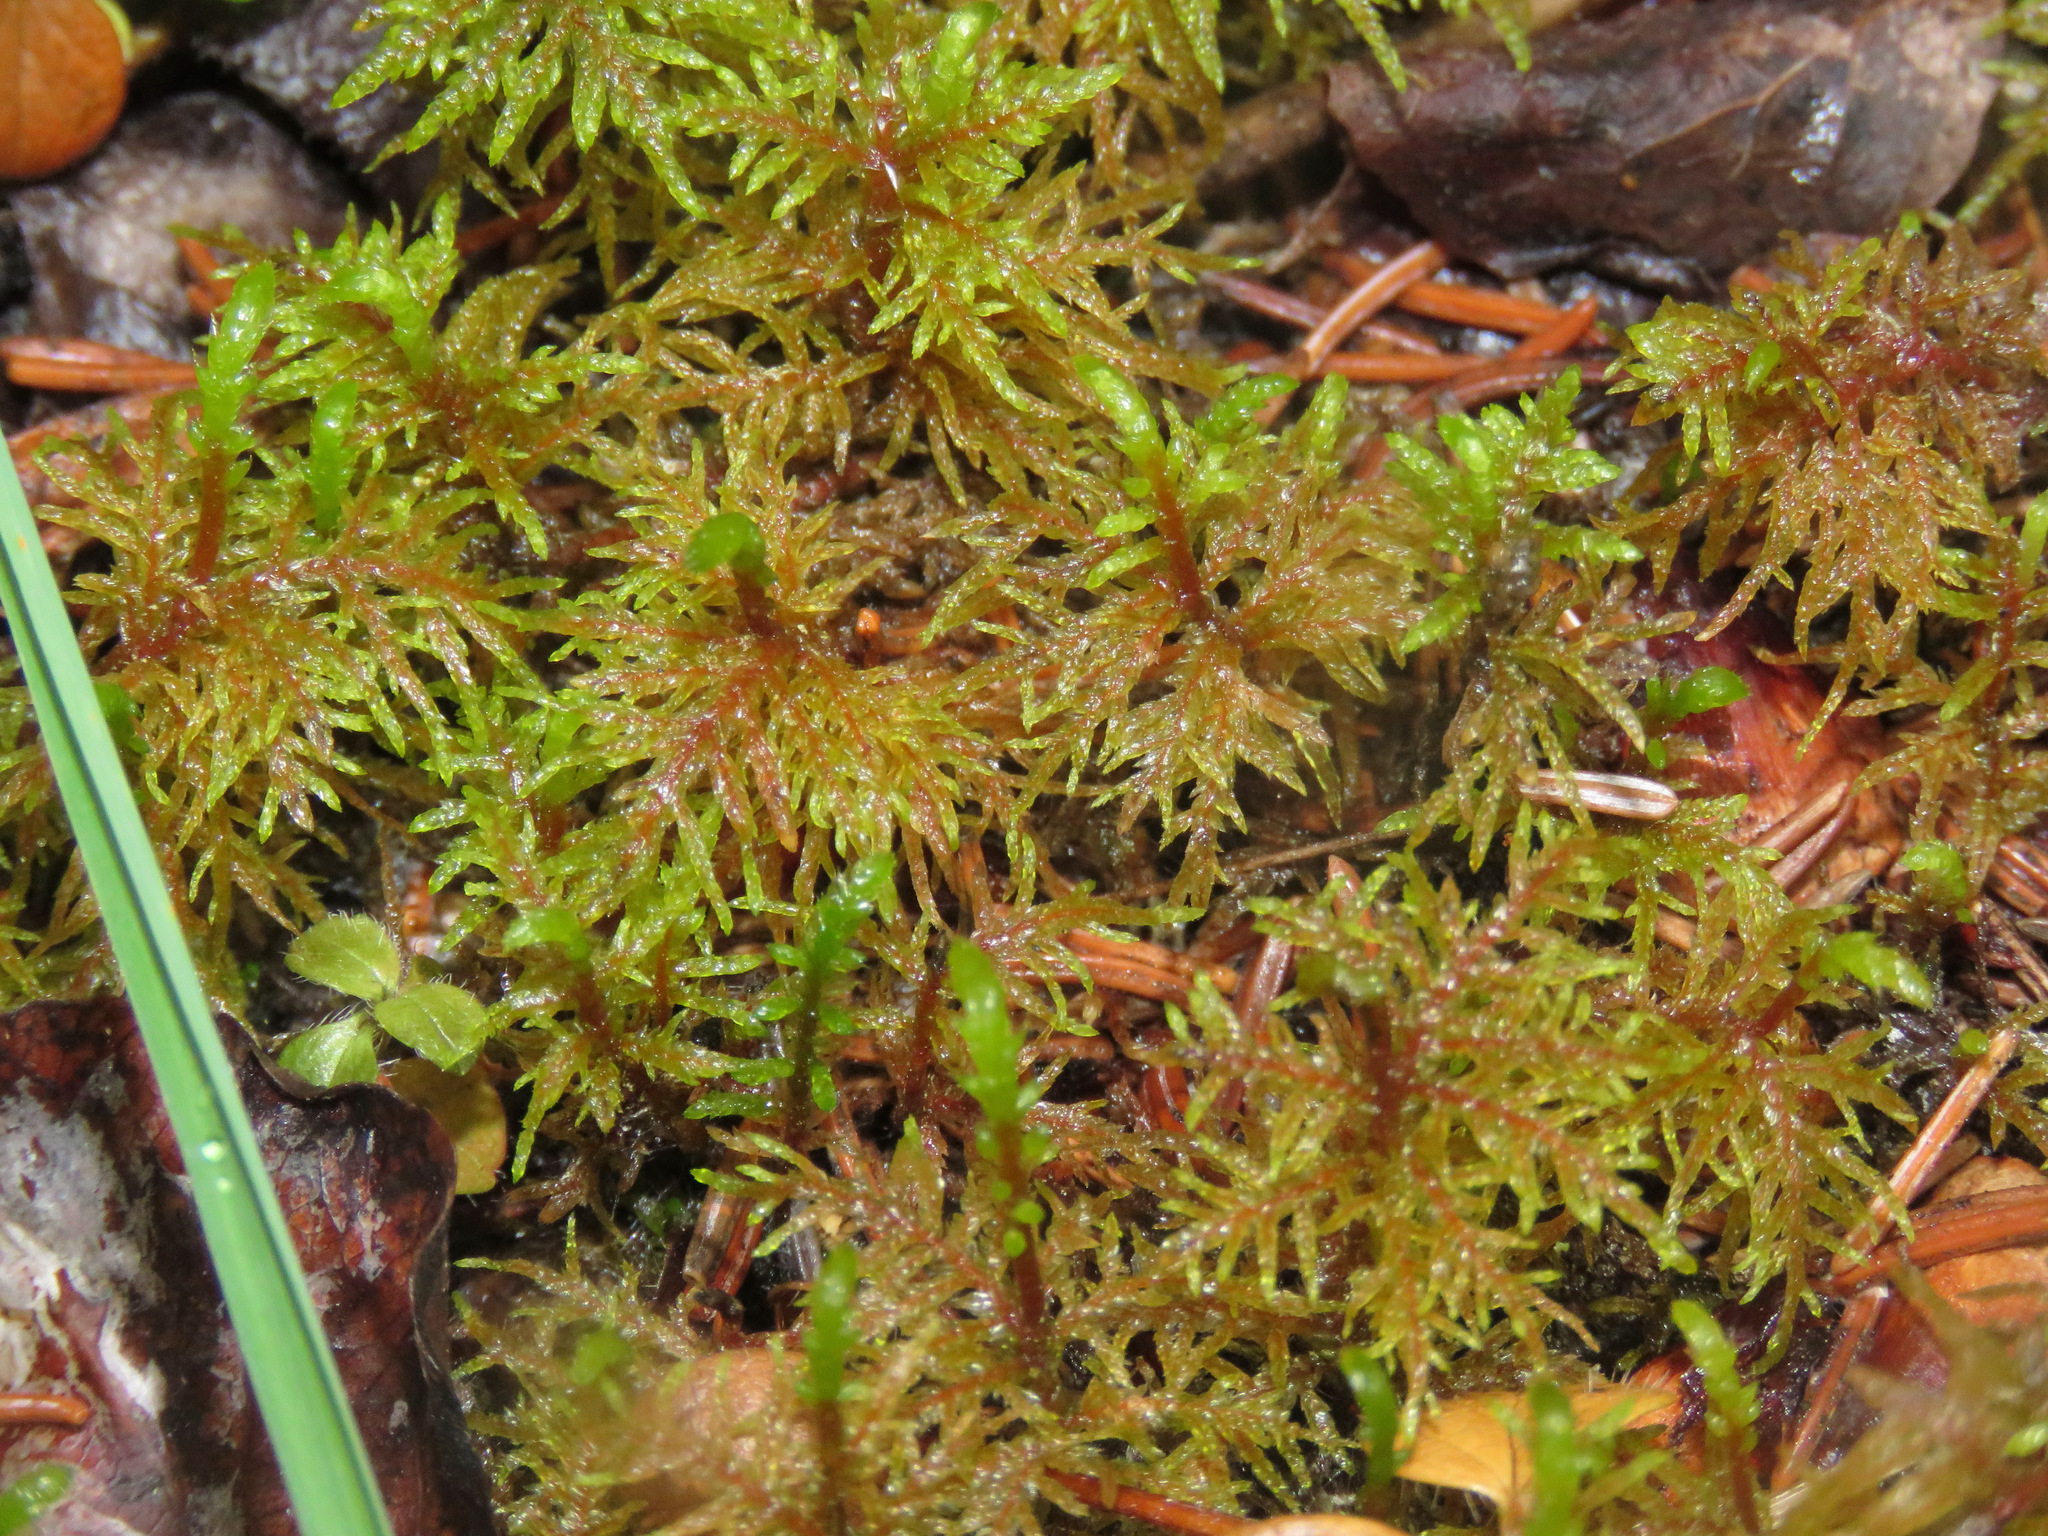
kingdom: Plantae
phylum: Bryophyta
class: Bryopsida
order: Hypnales
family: Hylocomiaceae
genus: Hylocomium
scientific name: Hylocomium splendens
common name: Stairstep moss
